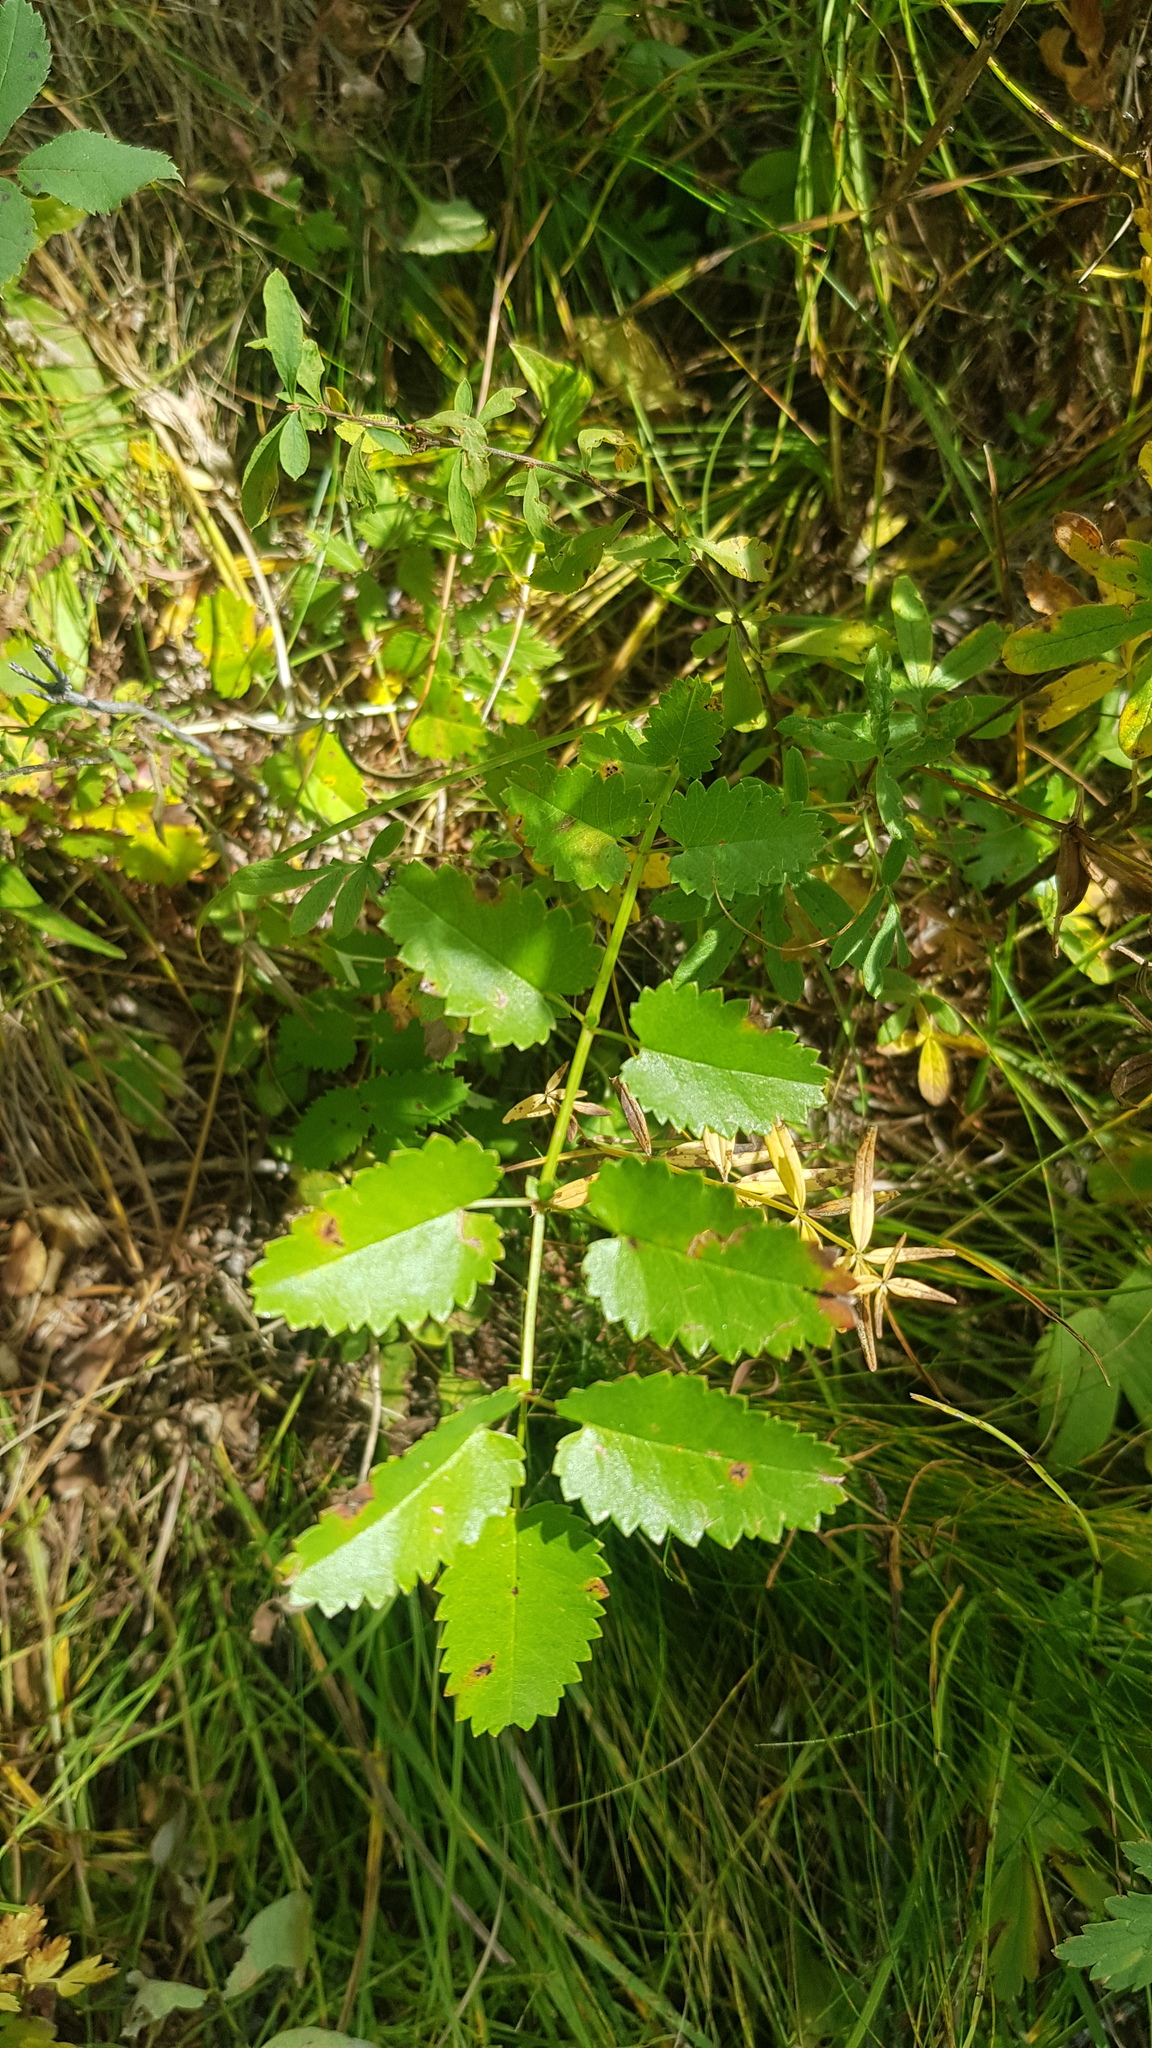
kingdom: Plantae
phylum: Tracheophyta
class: Magnoliopsida
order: Rosales
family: Rosaceae
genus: Sanguisorba
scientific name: Sanguisorba officinalis
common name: Great burnet
